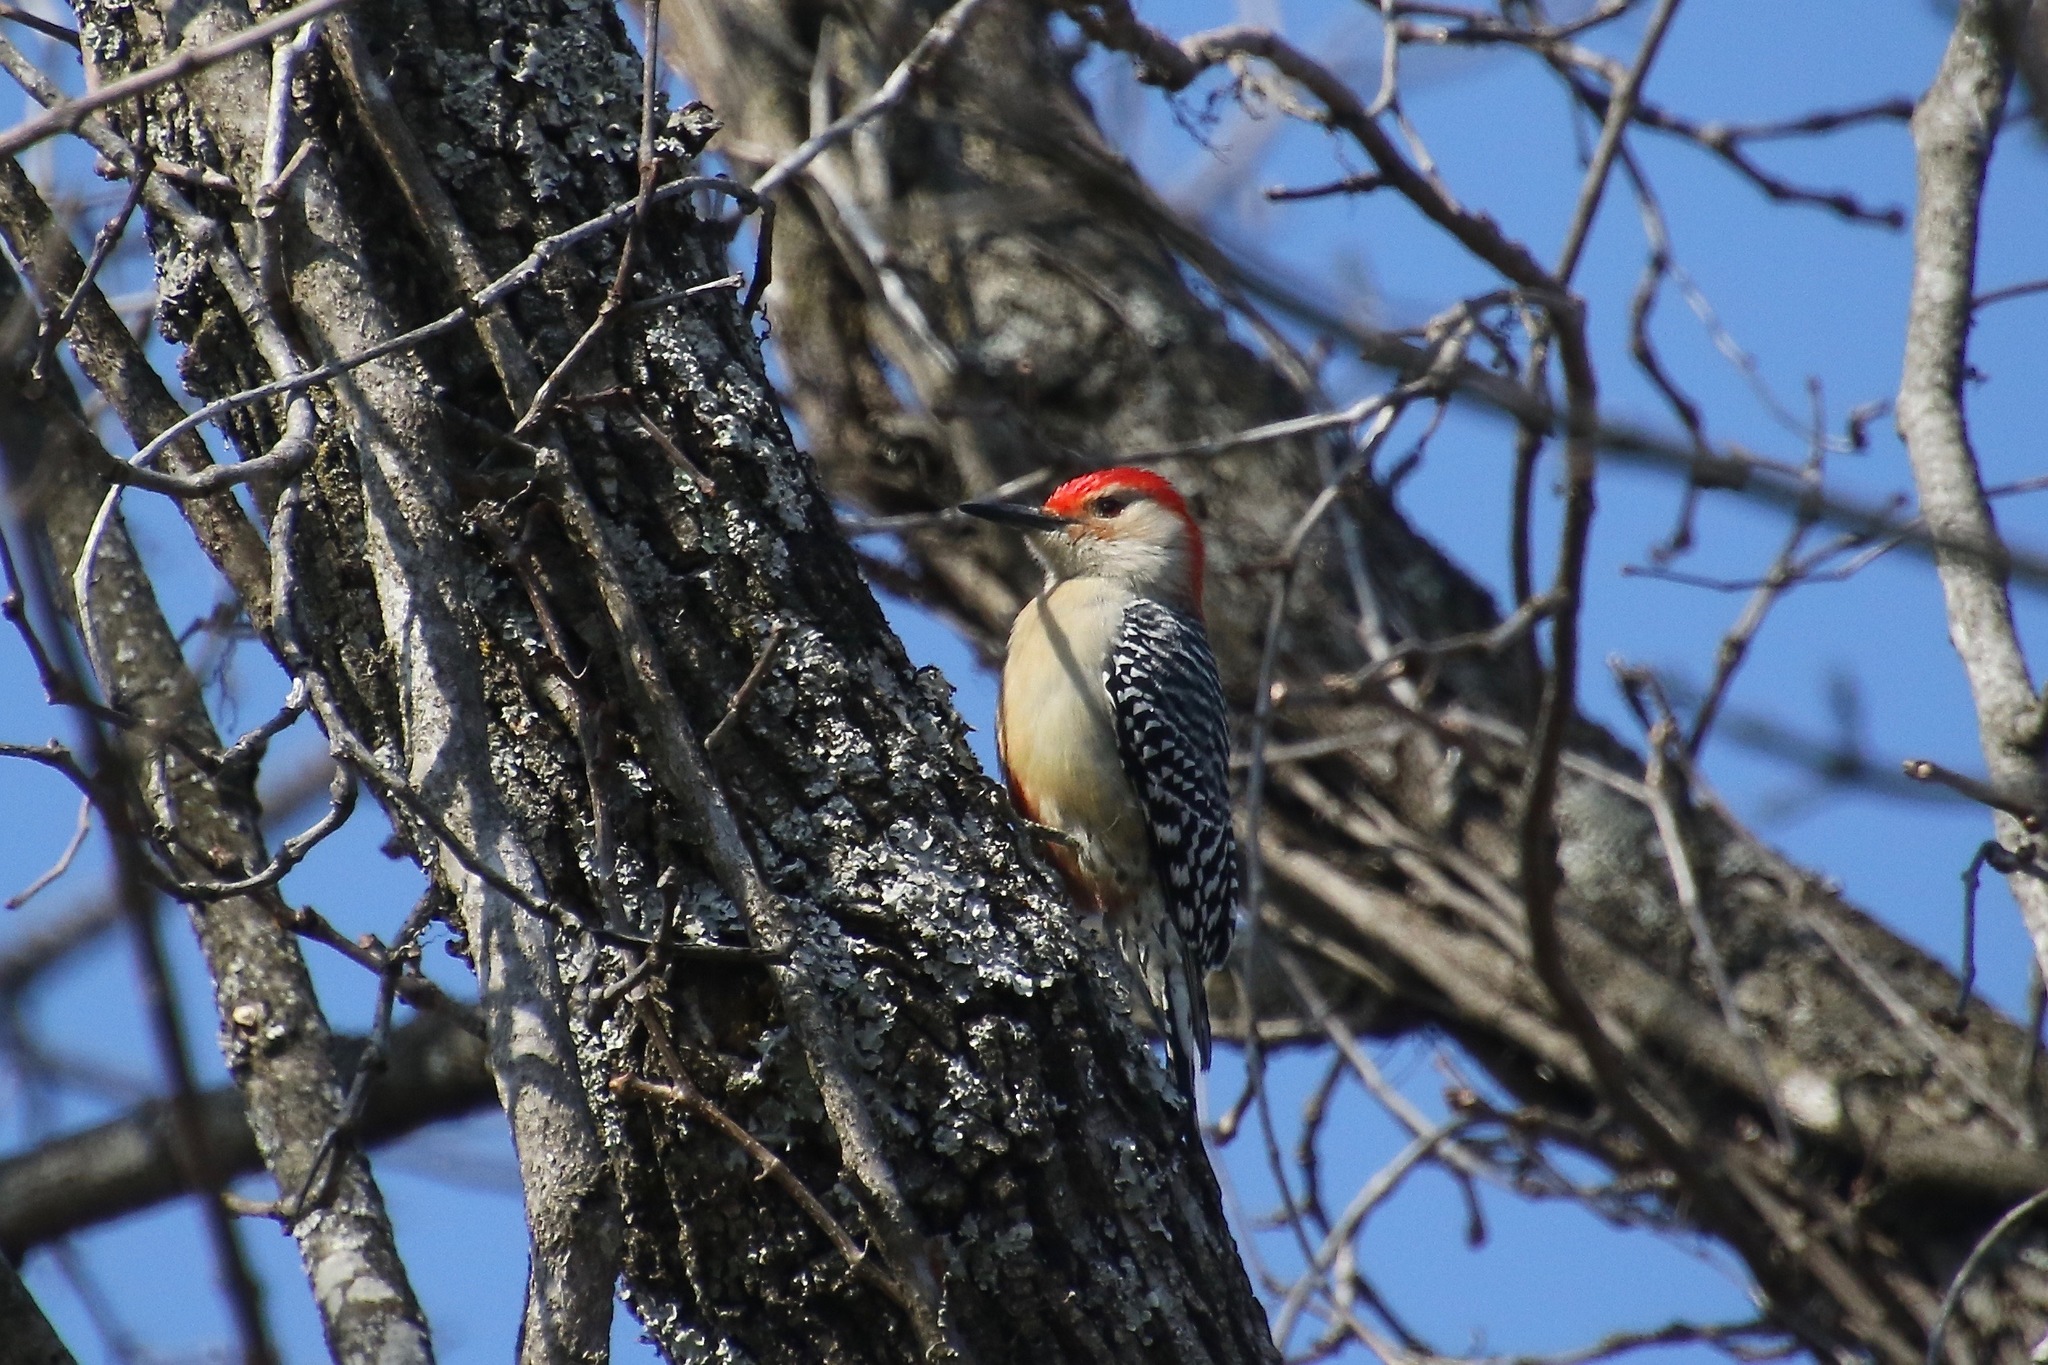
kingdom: Animalia
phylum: Chordata
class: Aves
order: Piciformes
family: Picidae
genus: Melanerpes
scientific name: Melanerpes carolinus
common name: Red-bellied woodpecker
